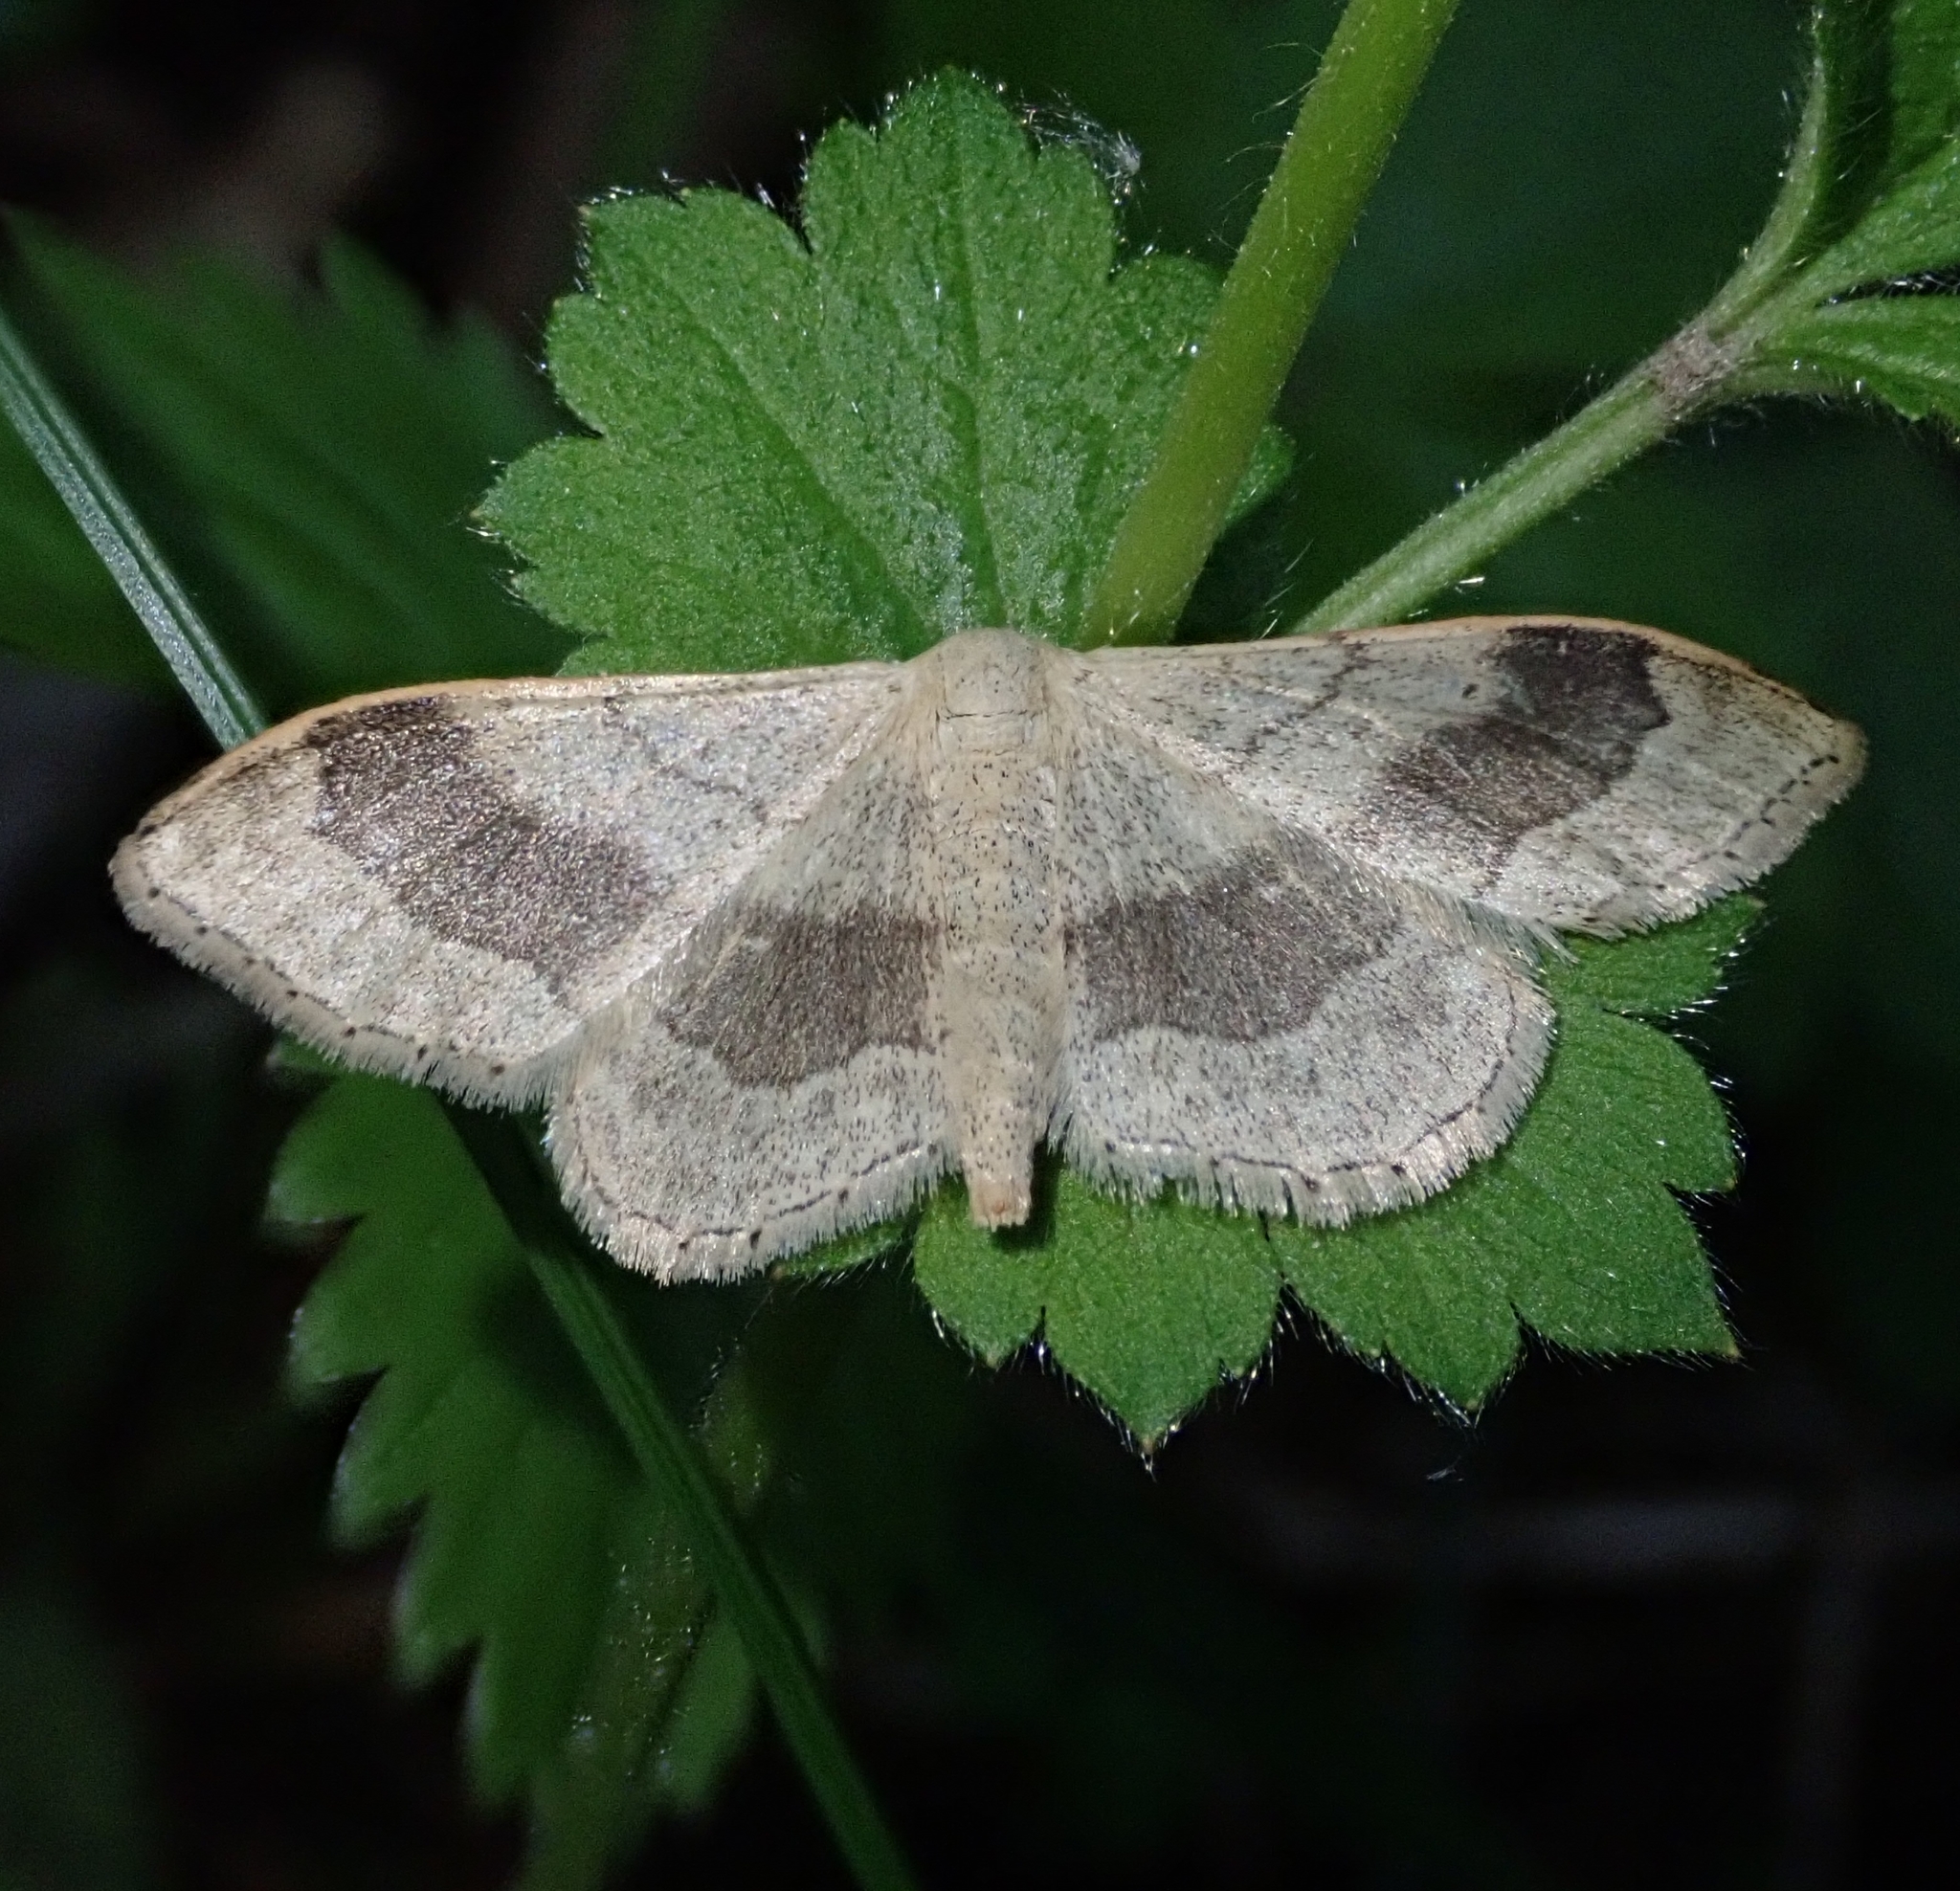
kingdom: Animalia
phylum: Arthropoda
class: Insecta
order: Lepidoptera
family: Geometridae
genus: Idaea
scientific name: Idaea aversata
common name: Riband wave
